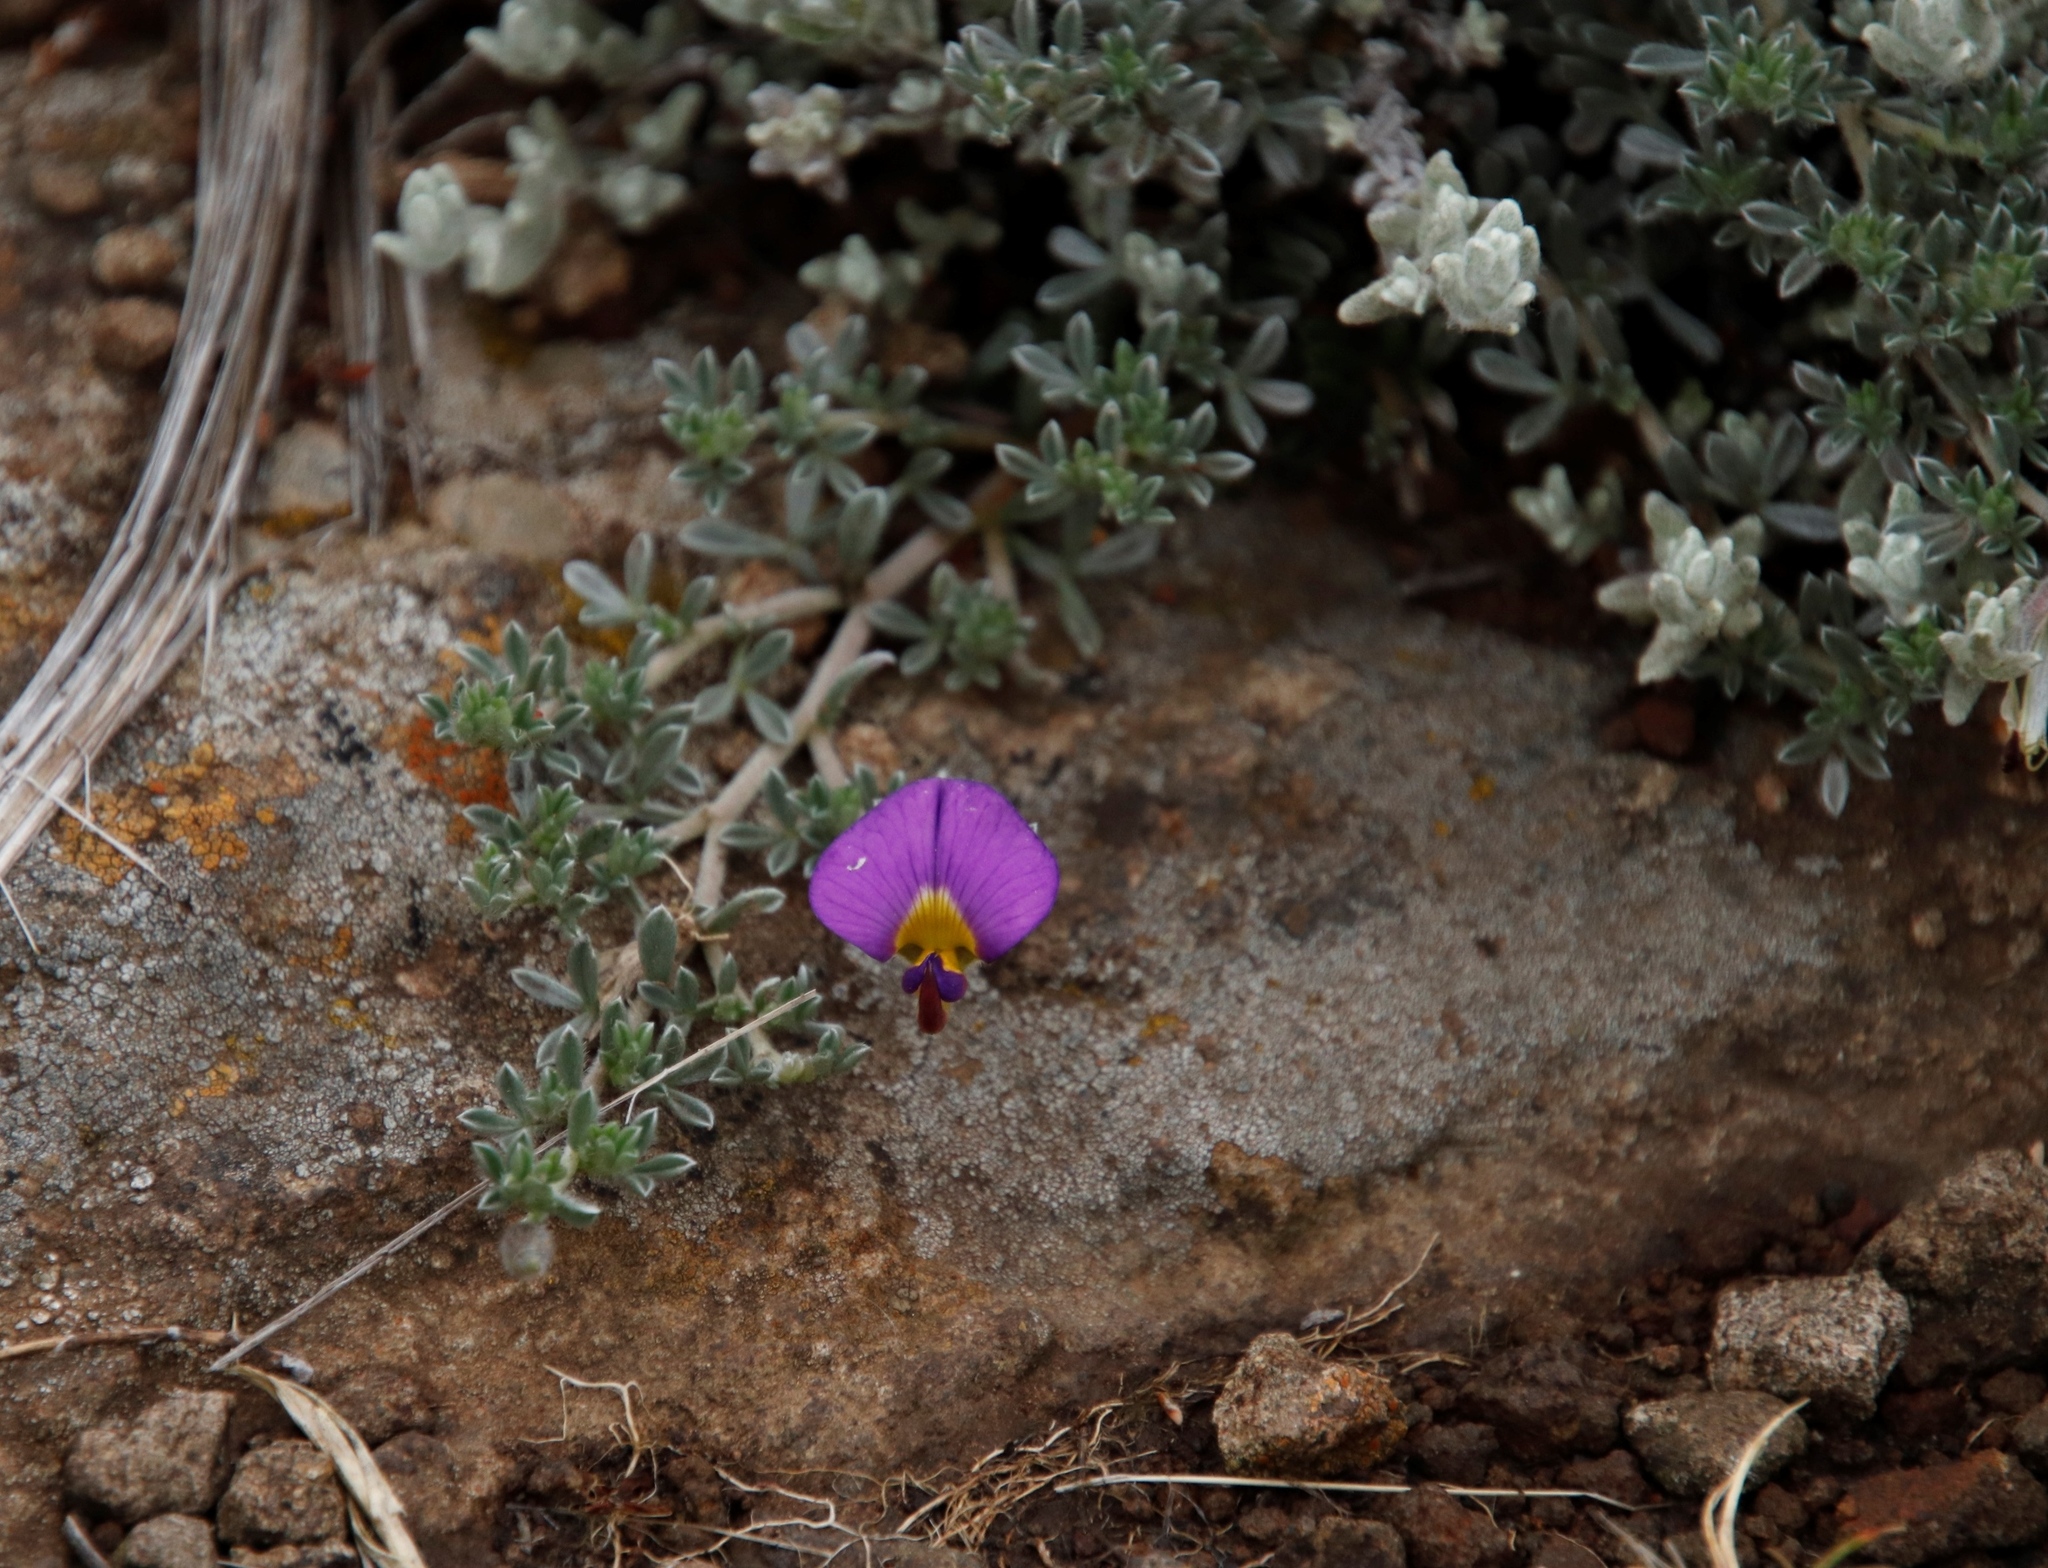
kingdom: Plantae
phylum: Tracheophyta
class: Magnoliopsida
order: Fabales
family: Fabaceae
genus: Lotononis
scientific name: Lotononis minor
